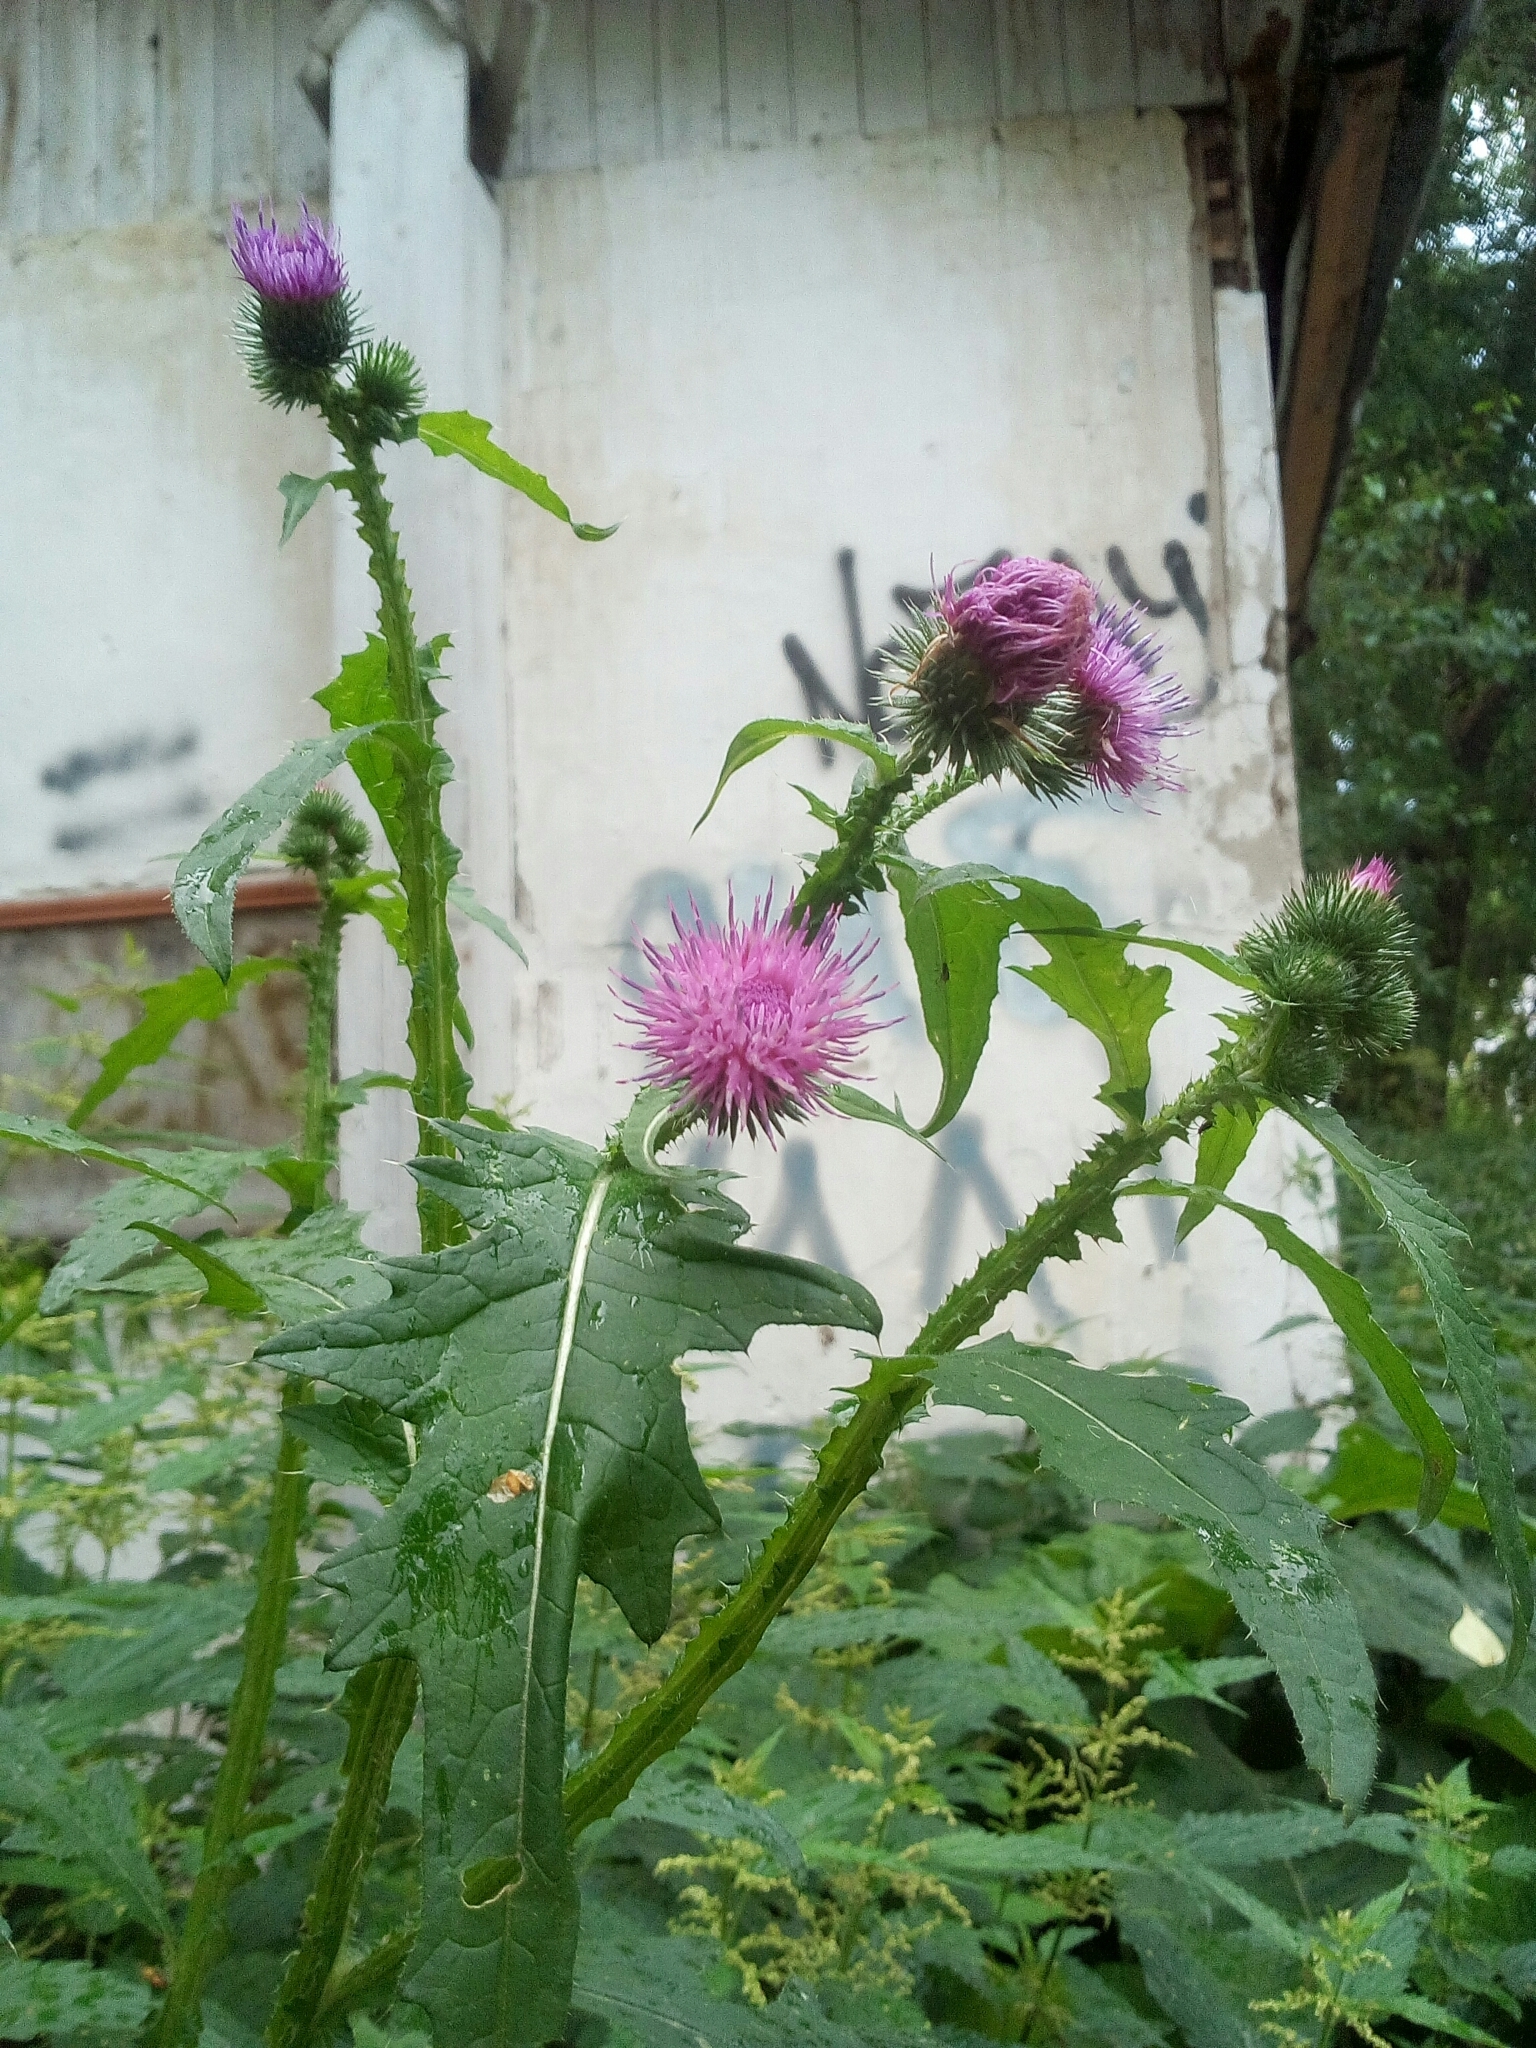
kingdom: Plantae
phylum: Tracheophyta
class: Magnoliopsida
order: Asterales
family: Asteraceae
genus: Carduus
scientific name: Carduus crispus
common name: Welted thistle
